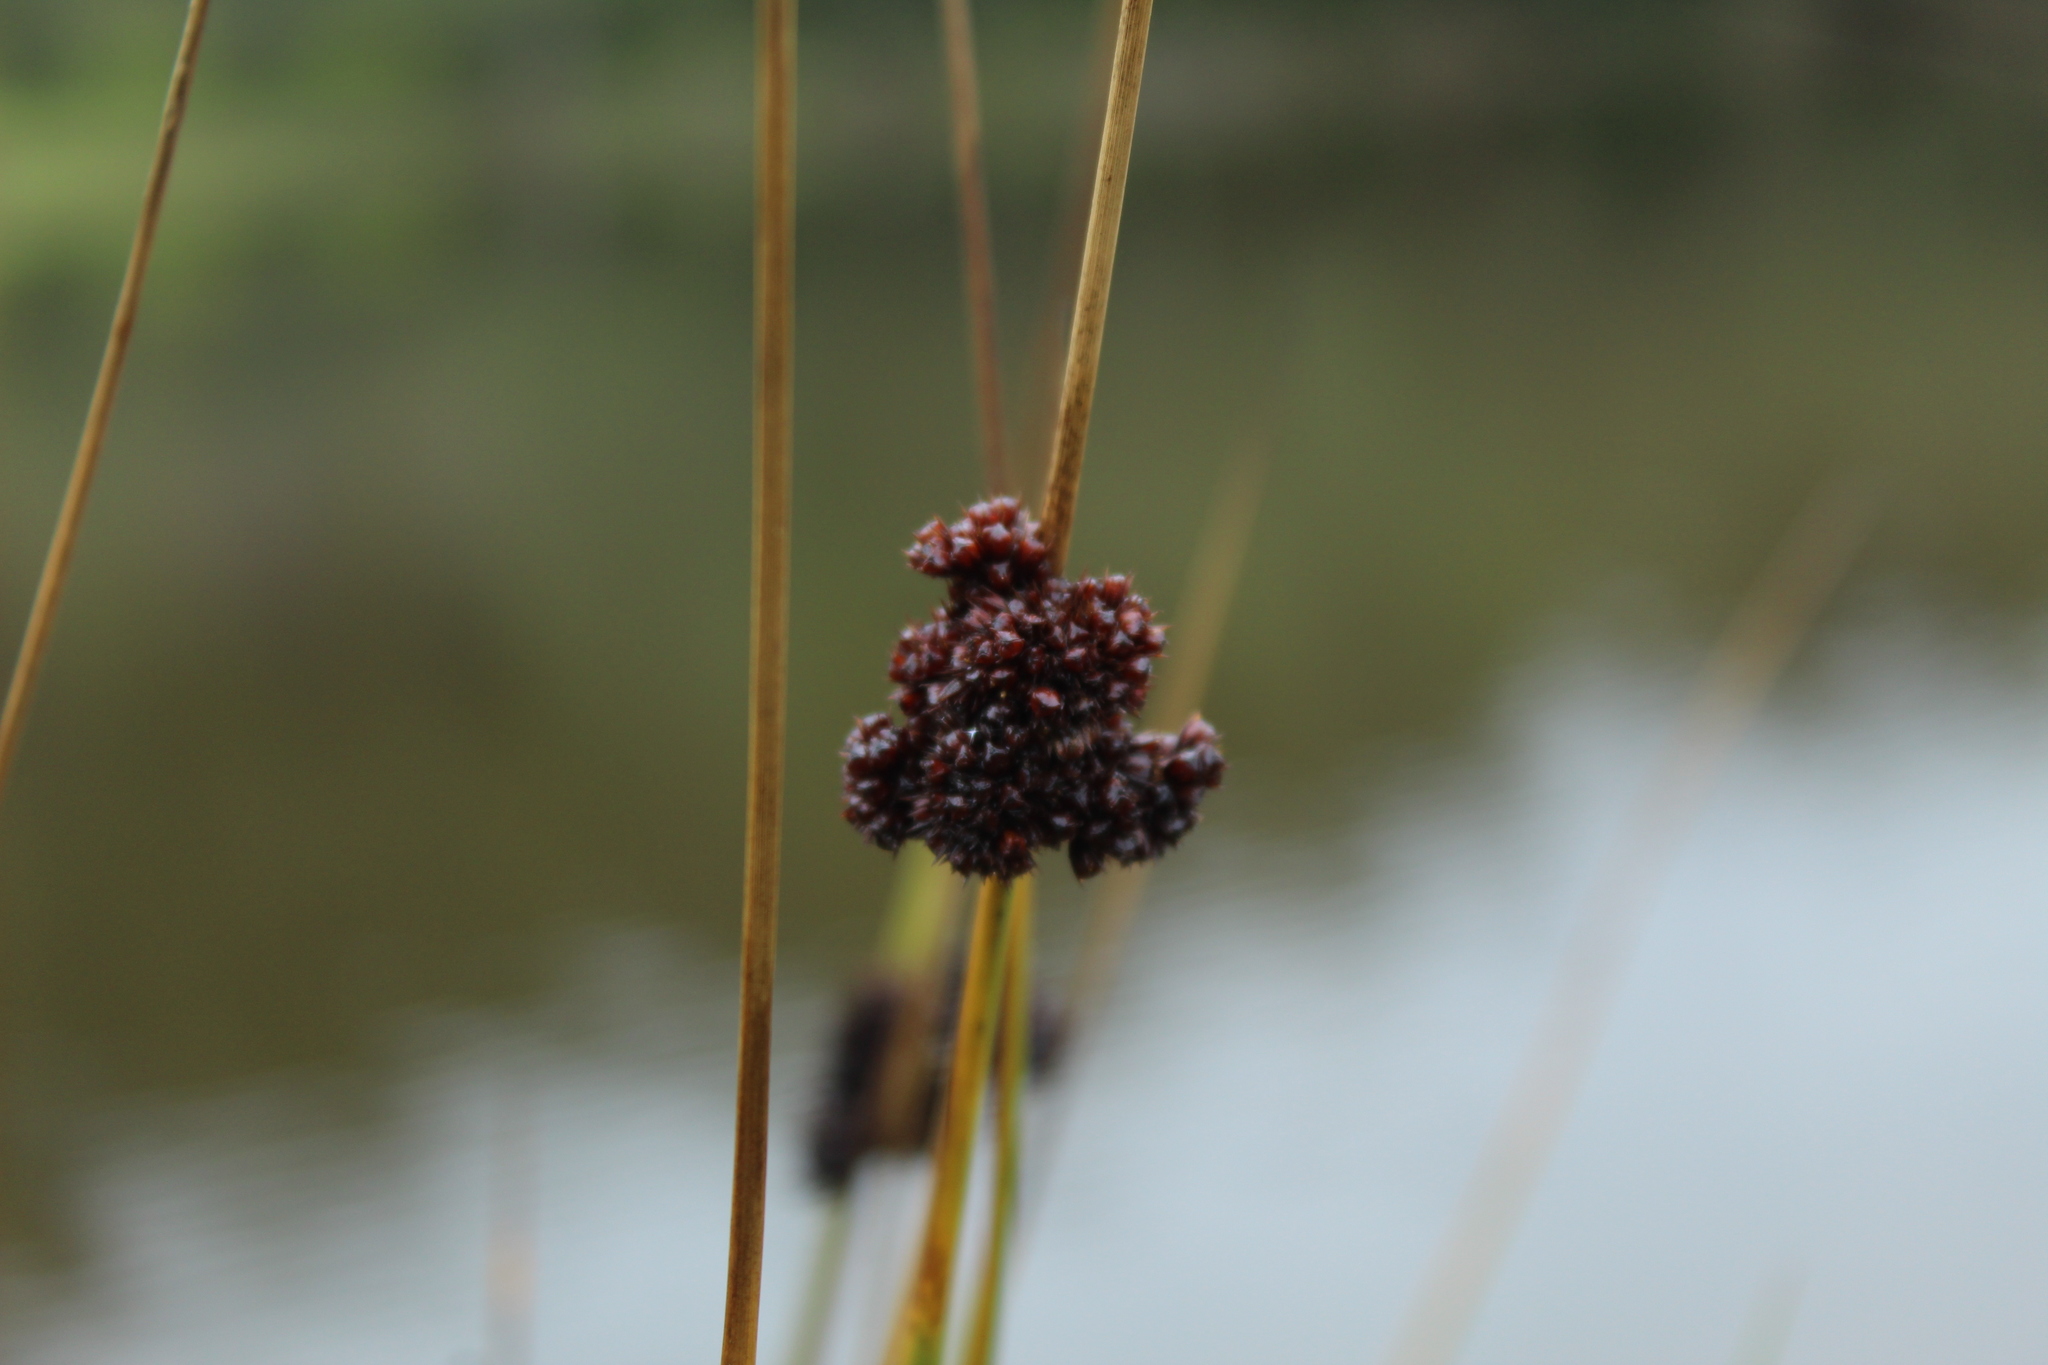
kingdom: Plantae
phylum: Tracheophyta
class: Liliopsida
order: Poales
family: Juncaceae
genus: Juncus
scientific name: Juncus effusus
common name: Soft rush
